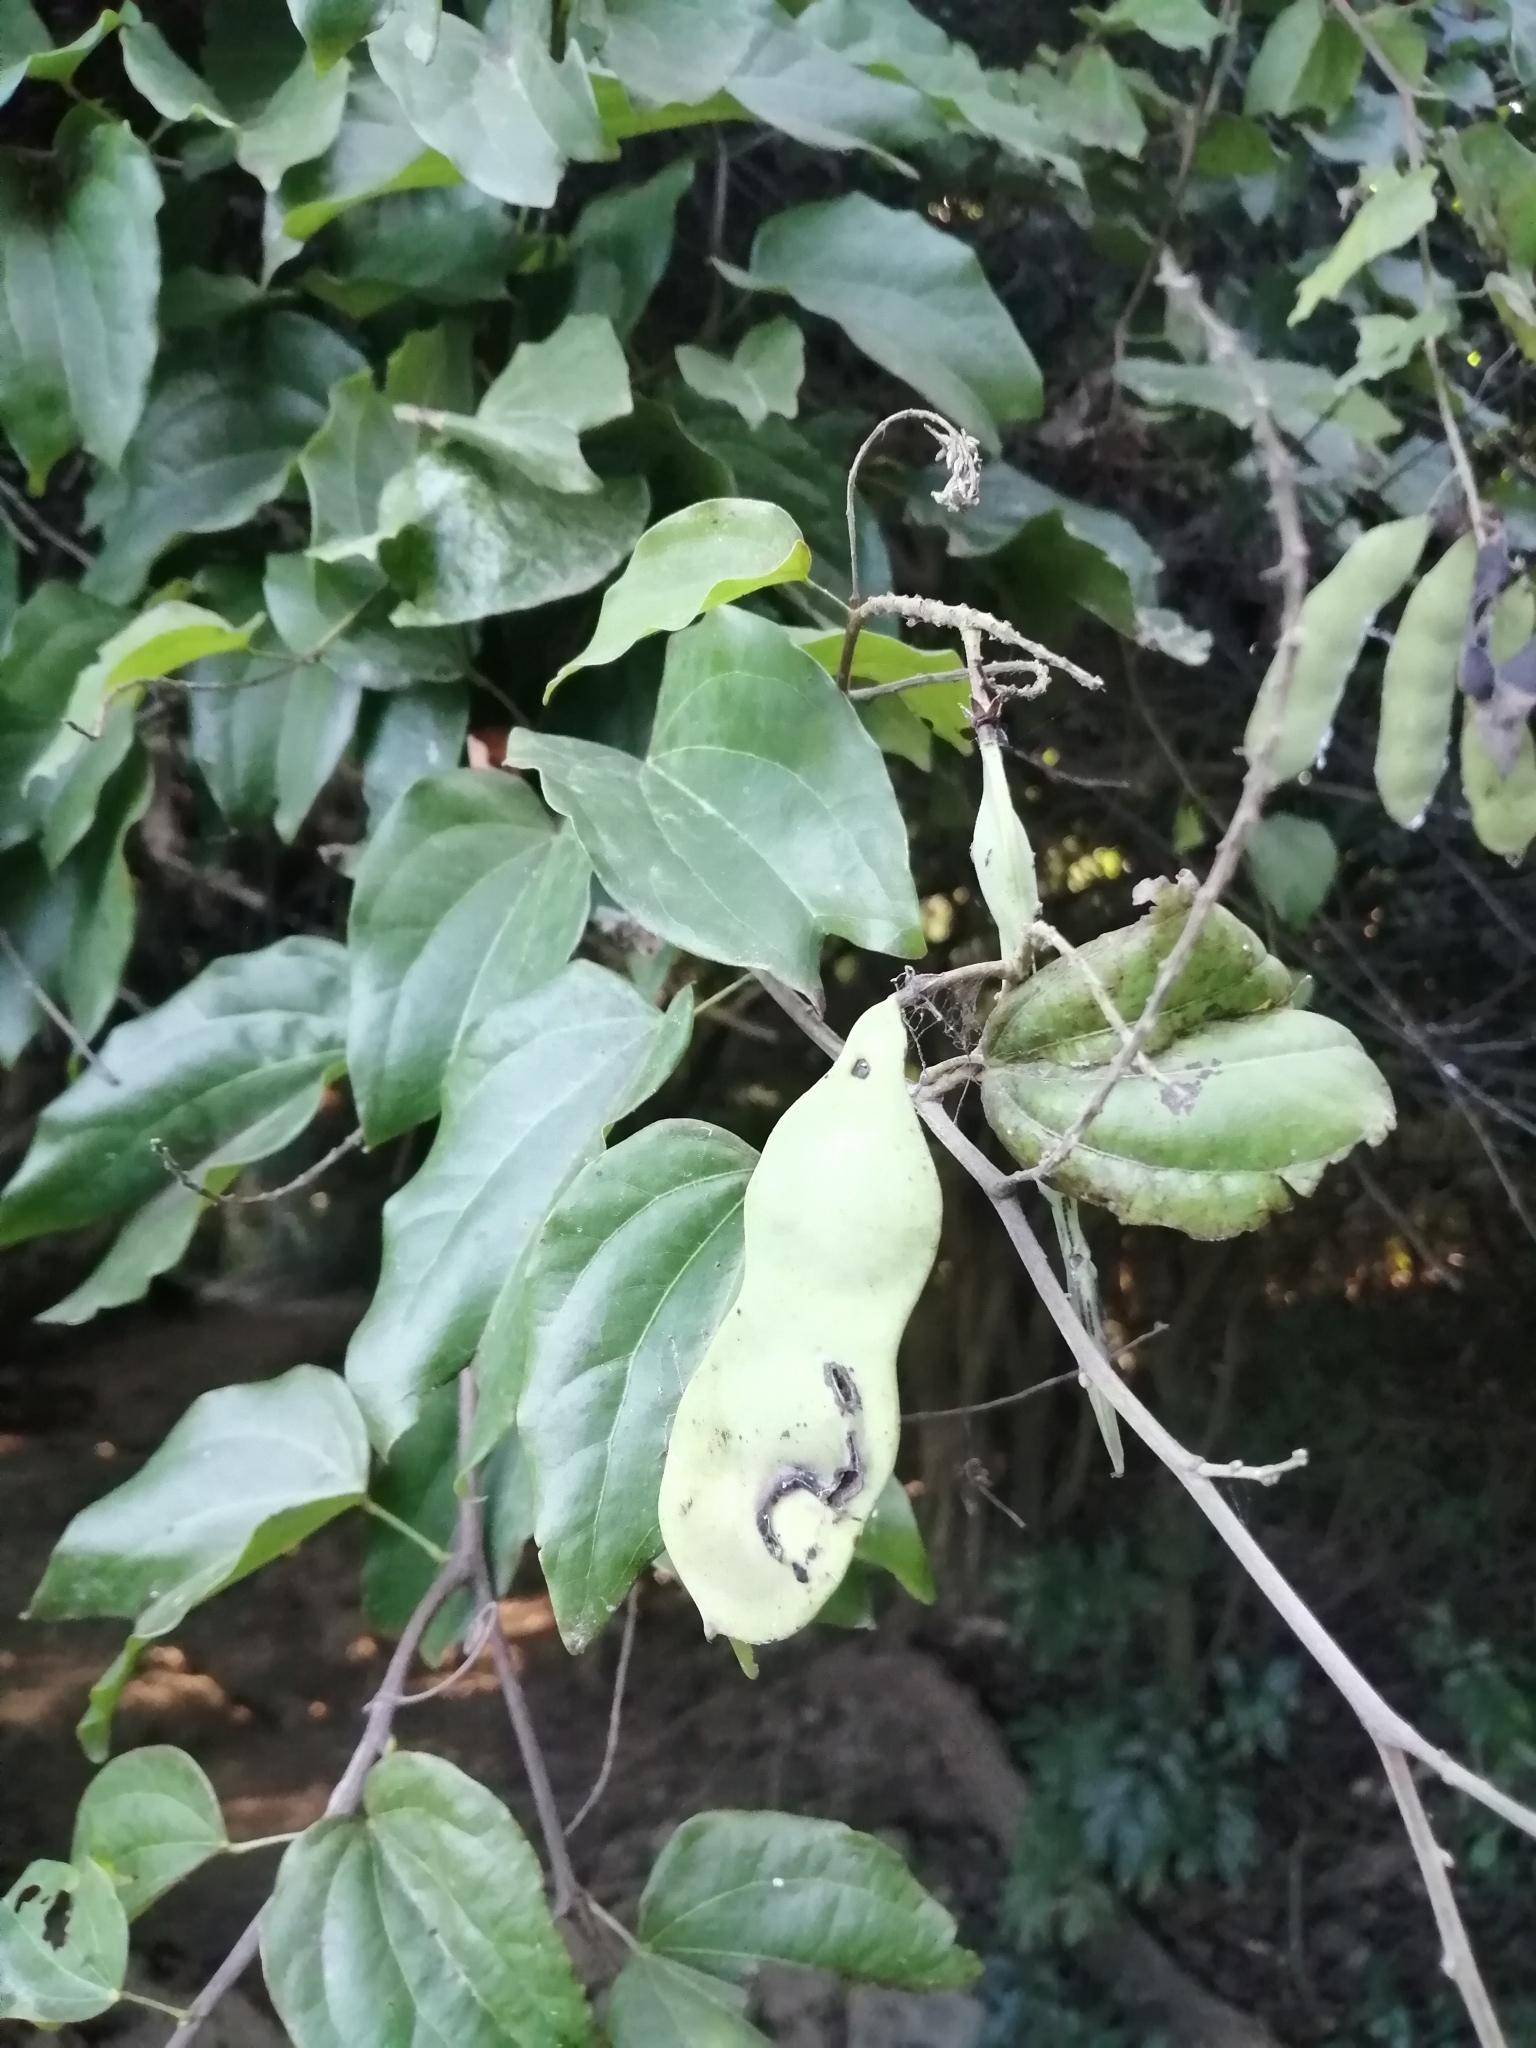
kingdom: Plantae
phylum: Tracheophyta
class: Magnoliopsida
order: Fabales
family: Fabaceae
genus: Phanera
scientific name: Phanera championii
